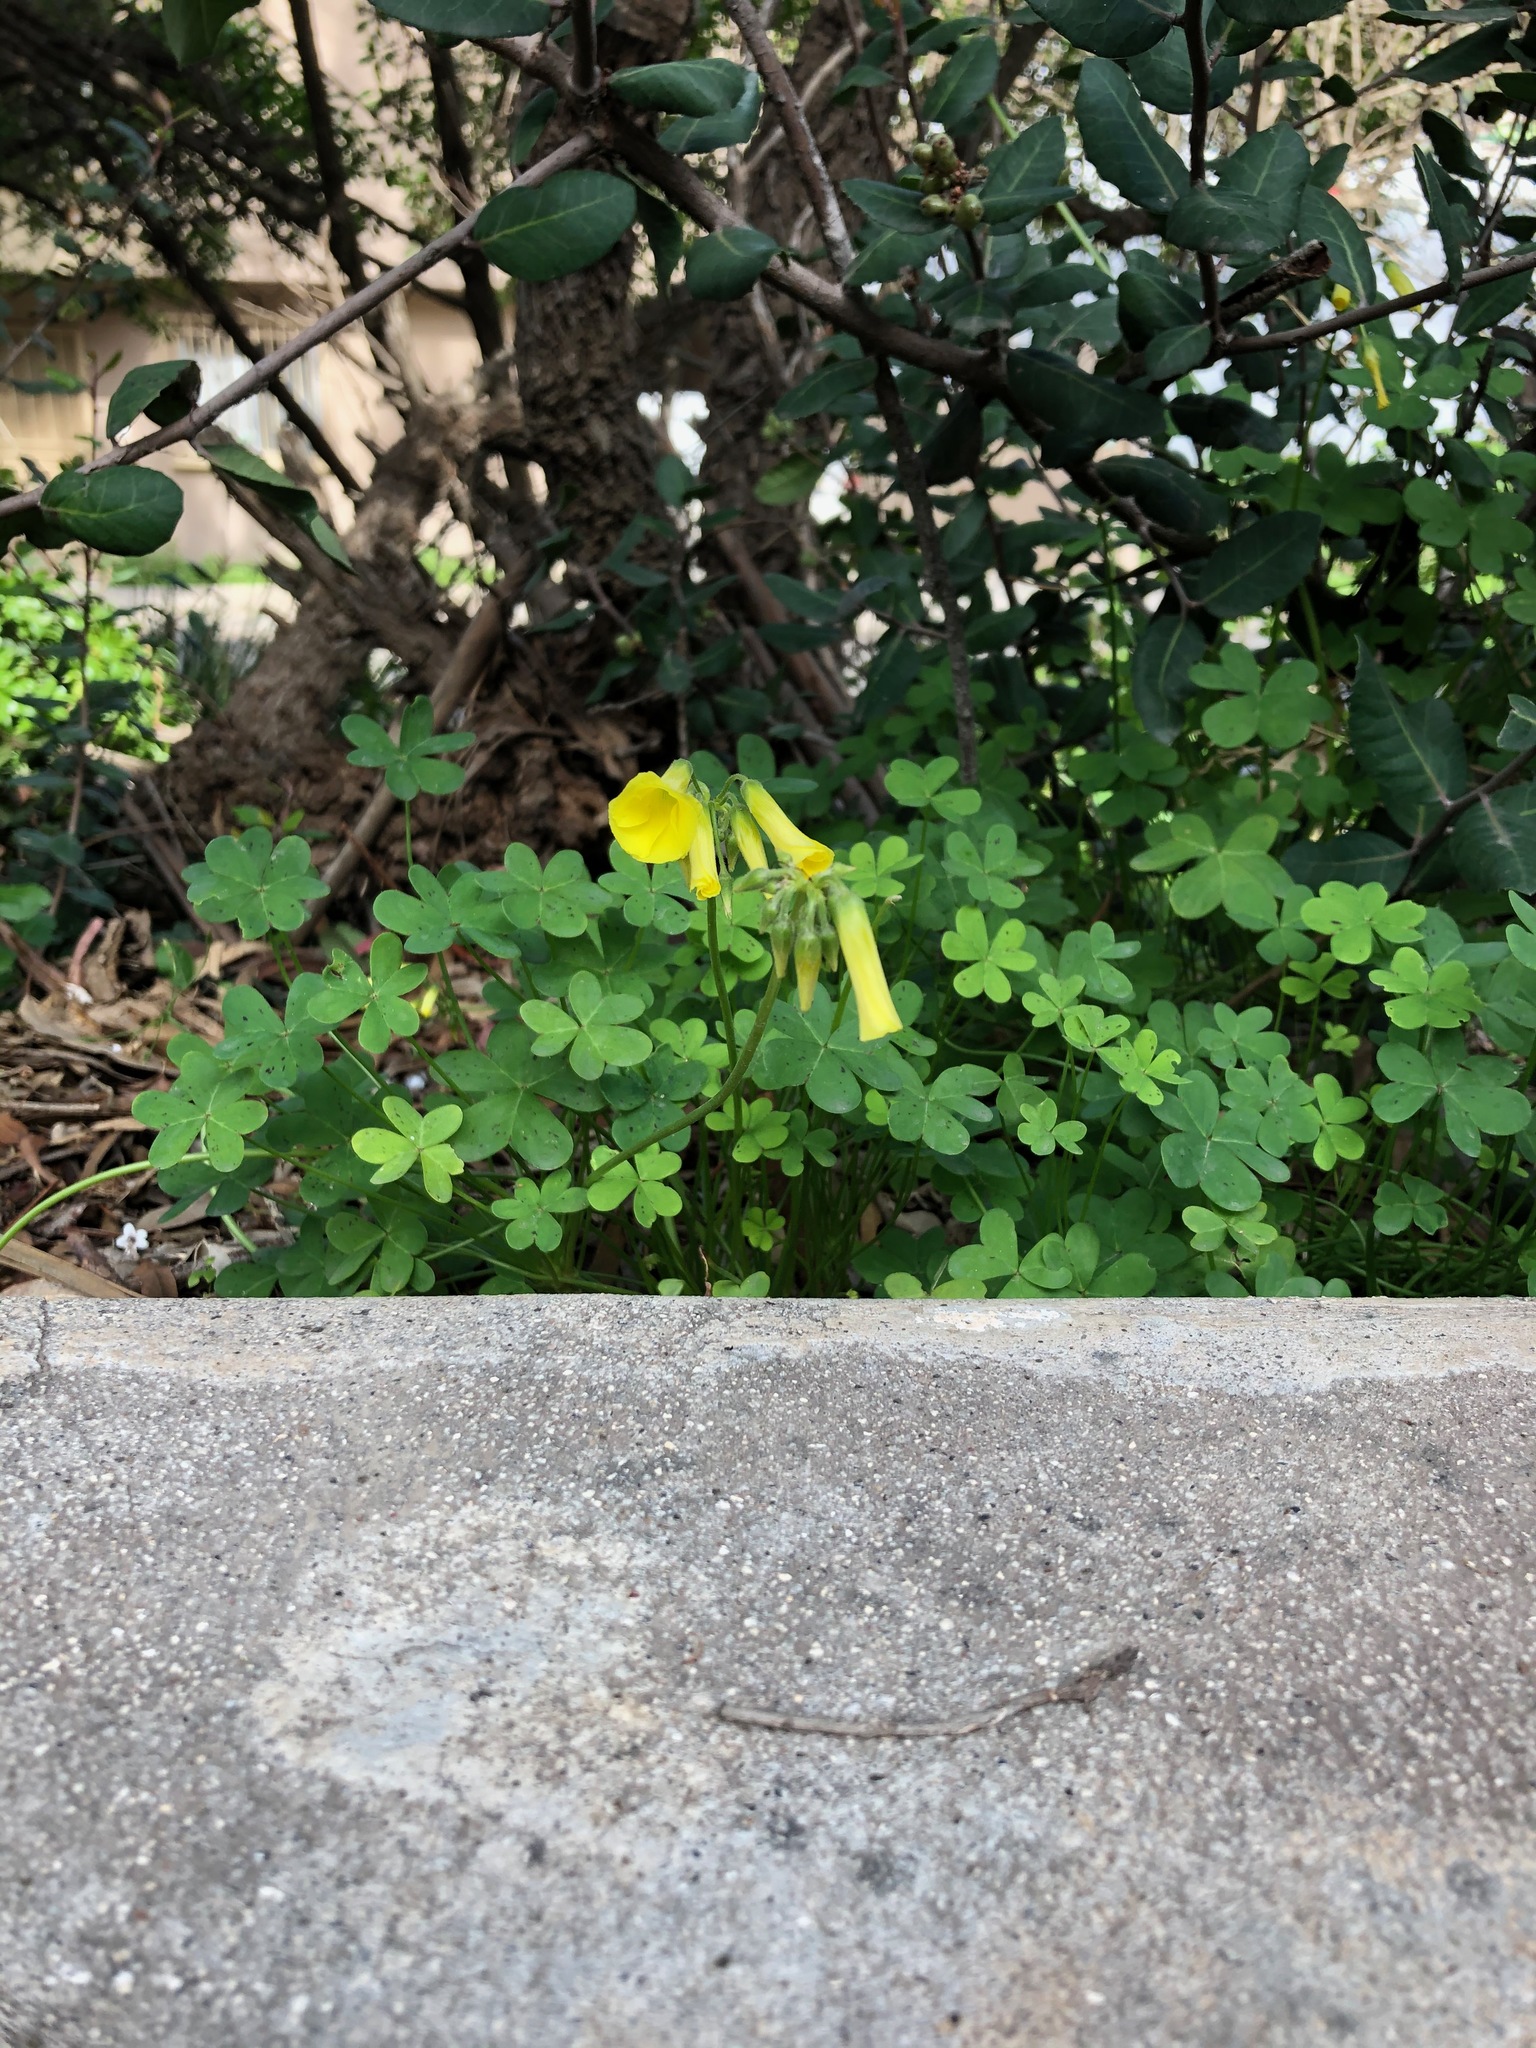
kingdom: Plantae
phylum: Tracheophyta
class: Magnoliopsida
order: Oxalidales
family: Oxalidaceae
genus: Oxalis
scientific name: Oxalis pes-caprae
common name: Bermuda-buttercup
